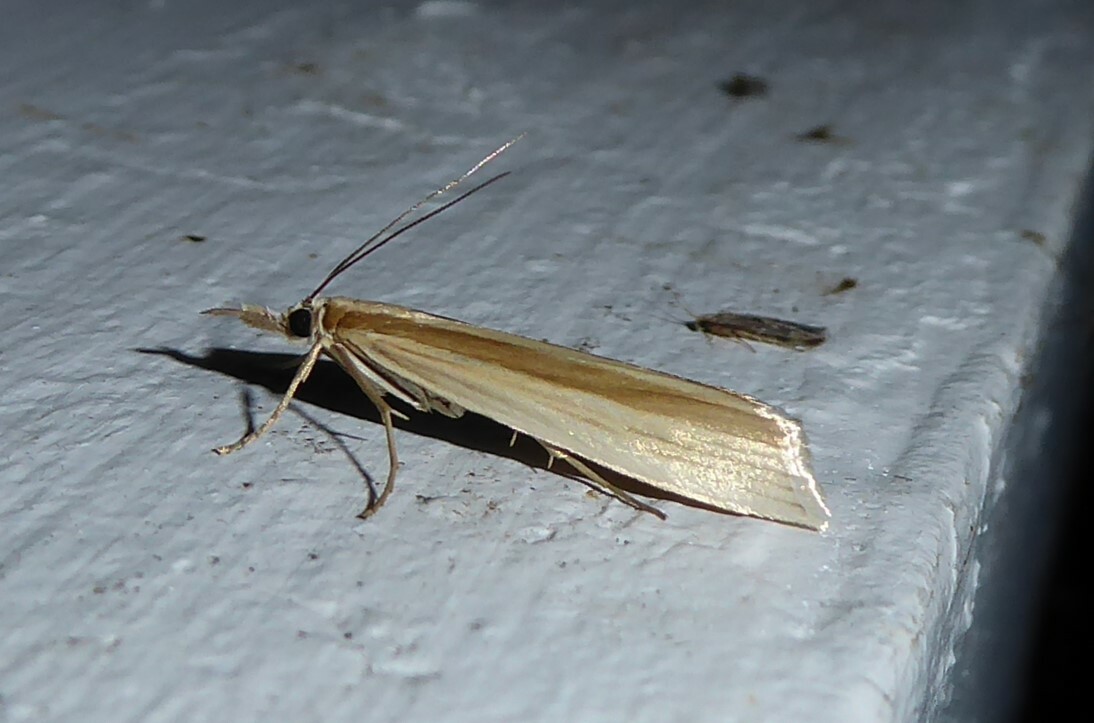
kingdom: Animalia
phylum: Arthropoda
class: Insecta
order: Lepidoptera
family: Crambidae
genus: Orocrambus
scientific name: Orocrambus angustipennis
